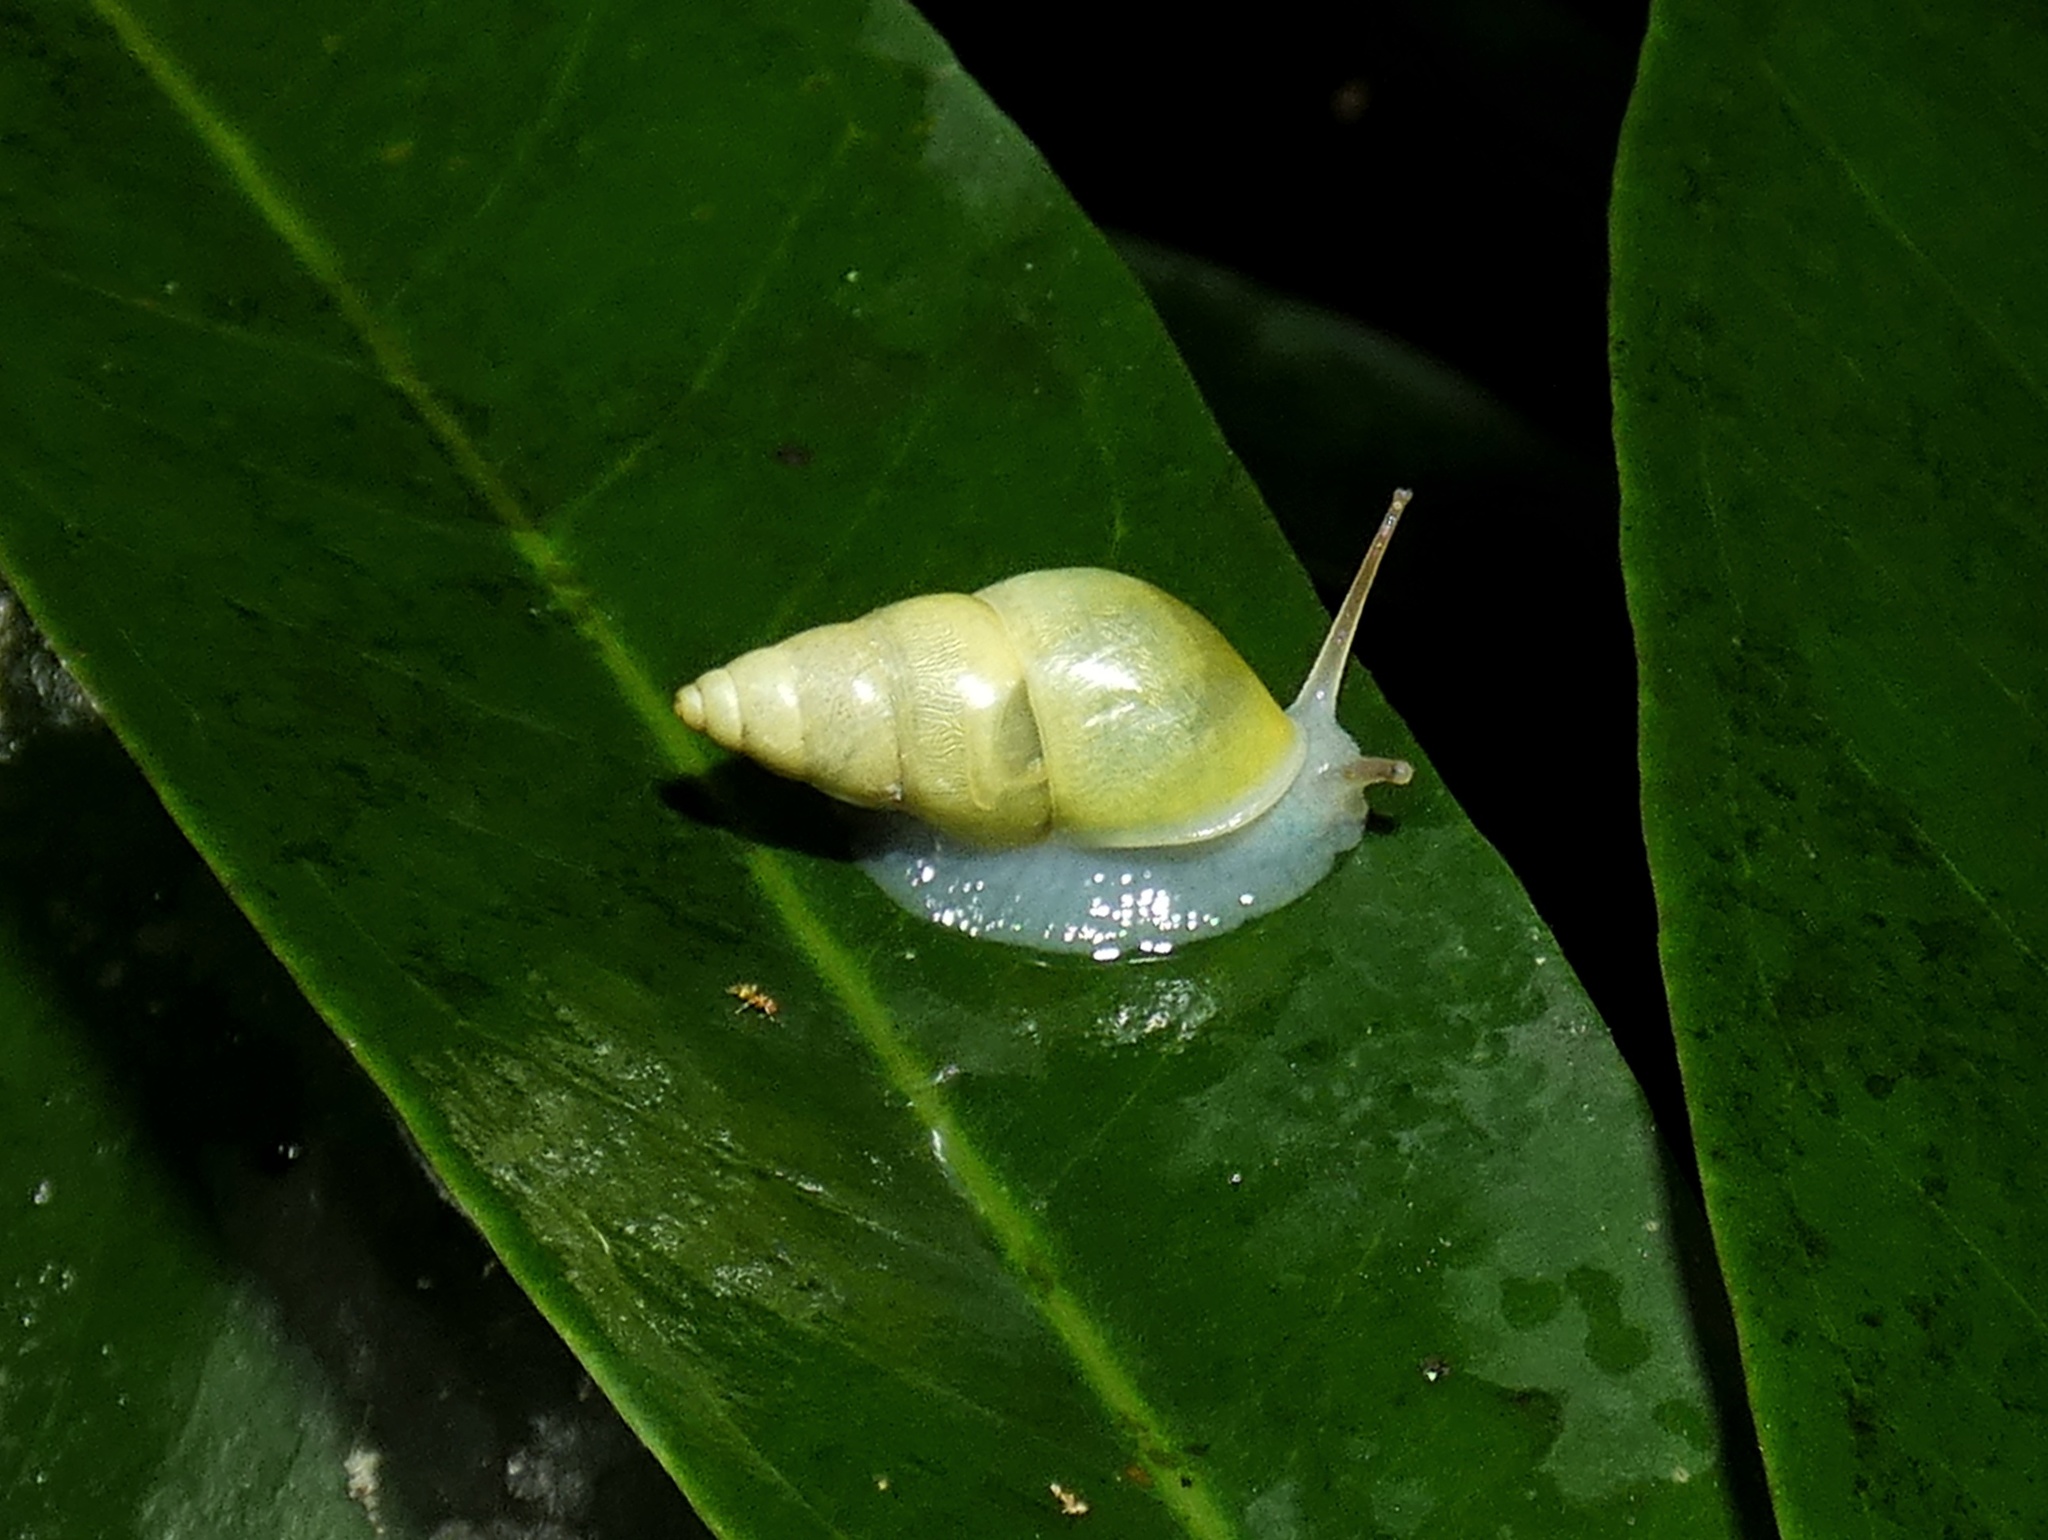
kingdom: Animalia
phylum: Mollusca
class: Gastropoda
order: Stylommatophora
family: Bulimulidae
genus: Drymaeus
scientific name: Drymaeus sulphureus
